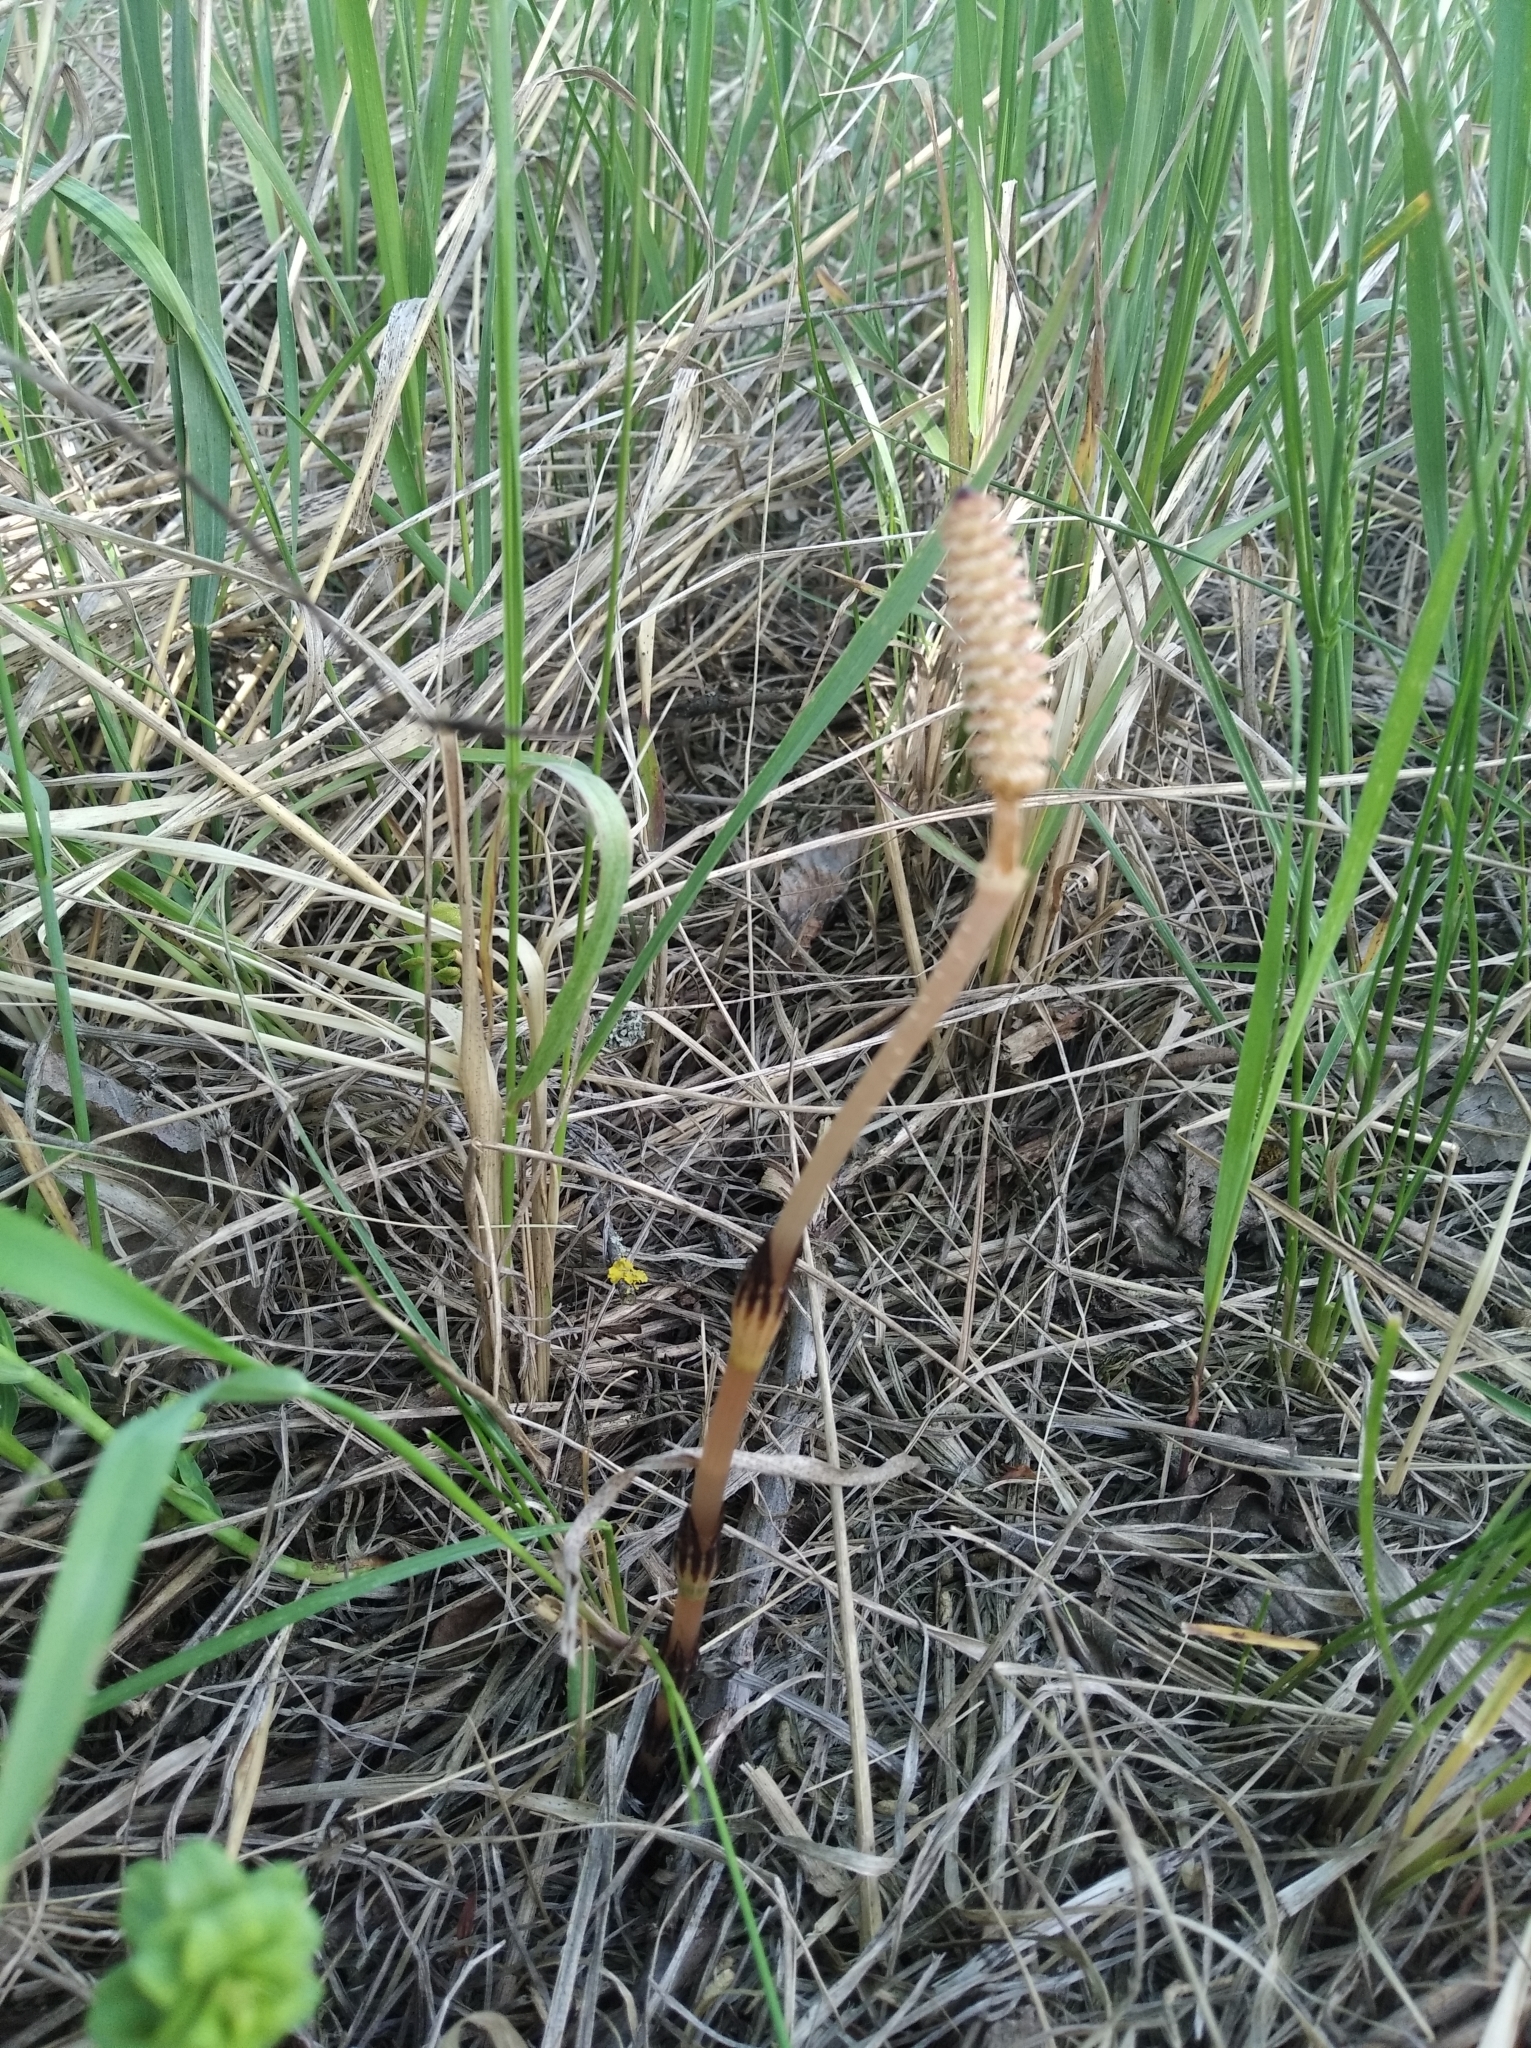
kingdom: Plantae
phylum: Tracheophyta
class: Polypodiopsida
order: Equisetales
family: Equisetaceae
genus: Equisetum
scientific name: Equisetum arvense
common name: Field horsetail
